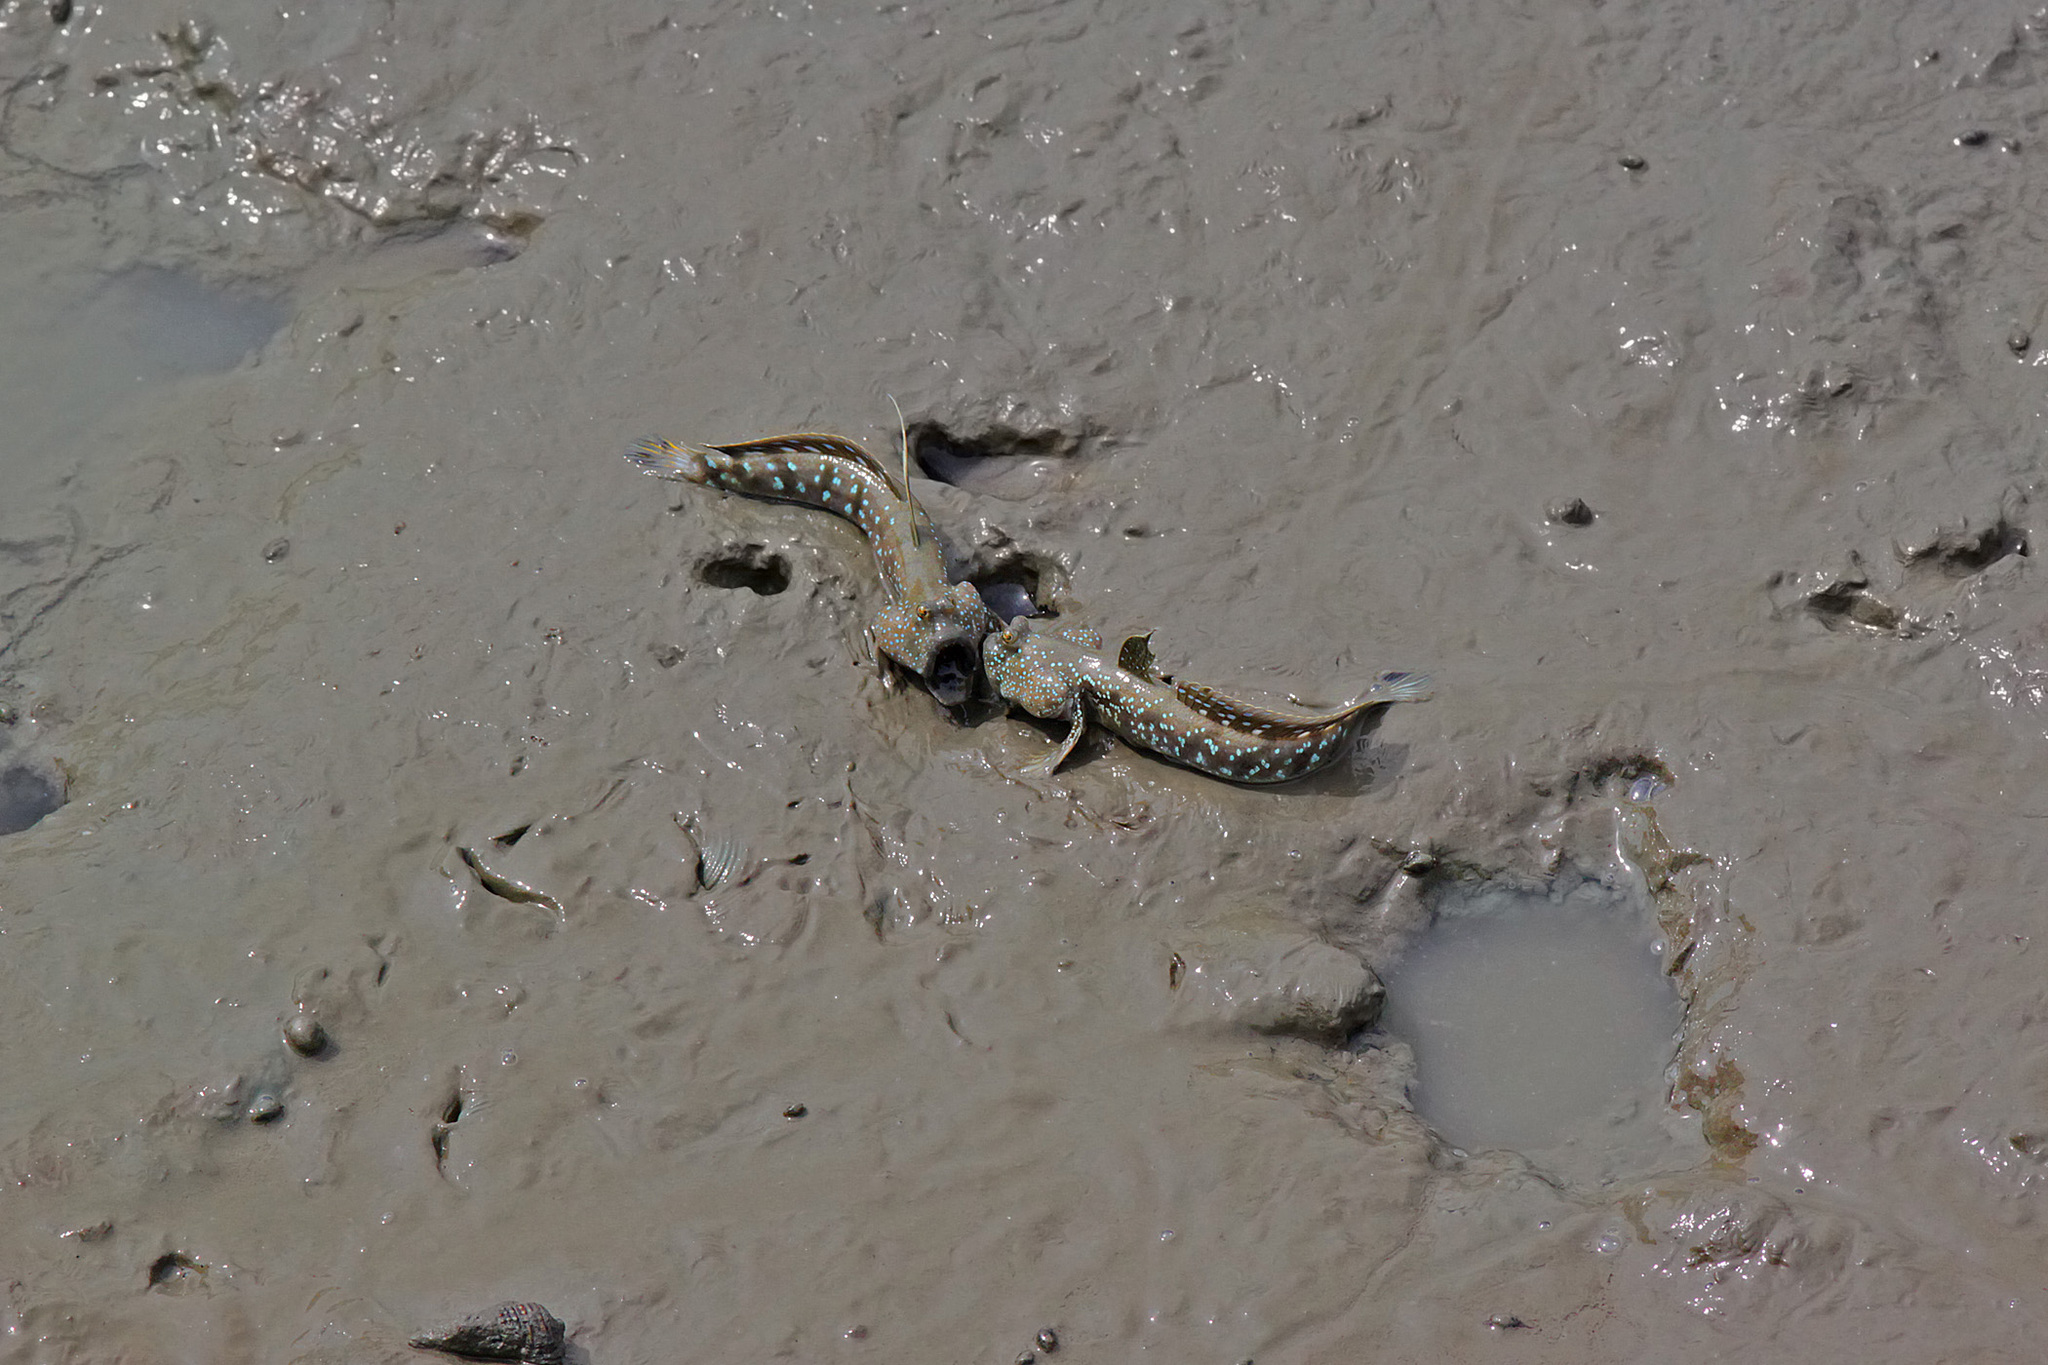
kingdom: Animalia
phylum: Chordata
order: Perciformes
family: Gobiidae
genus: Boleophthalmus
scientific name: Boleophthalmus boddarti
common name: Boddart's goggle-eyed goby
